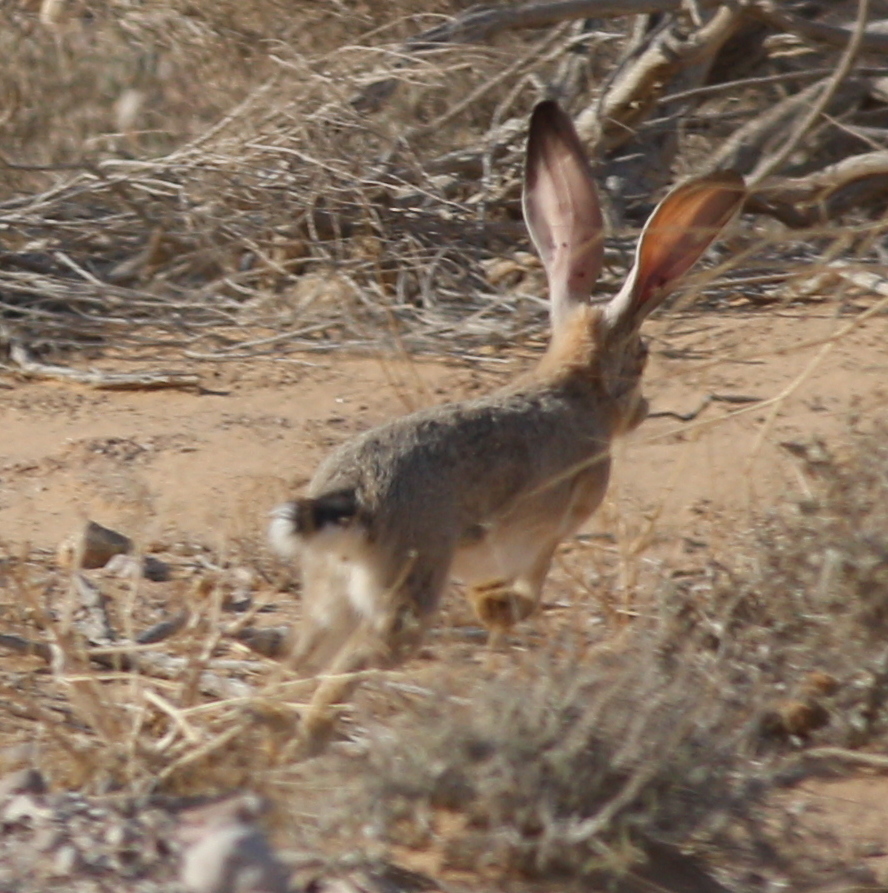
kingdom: Animalia
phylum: Chordata
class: Mammalia
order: Lagomorpha
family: Leporidae
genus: Lepus
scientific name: Lepus capensis
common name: Cape hare
